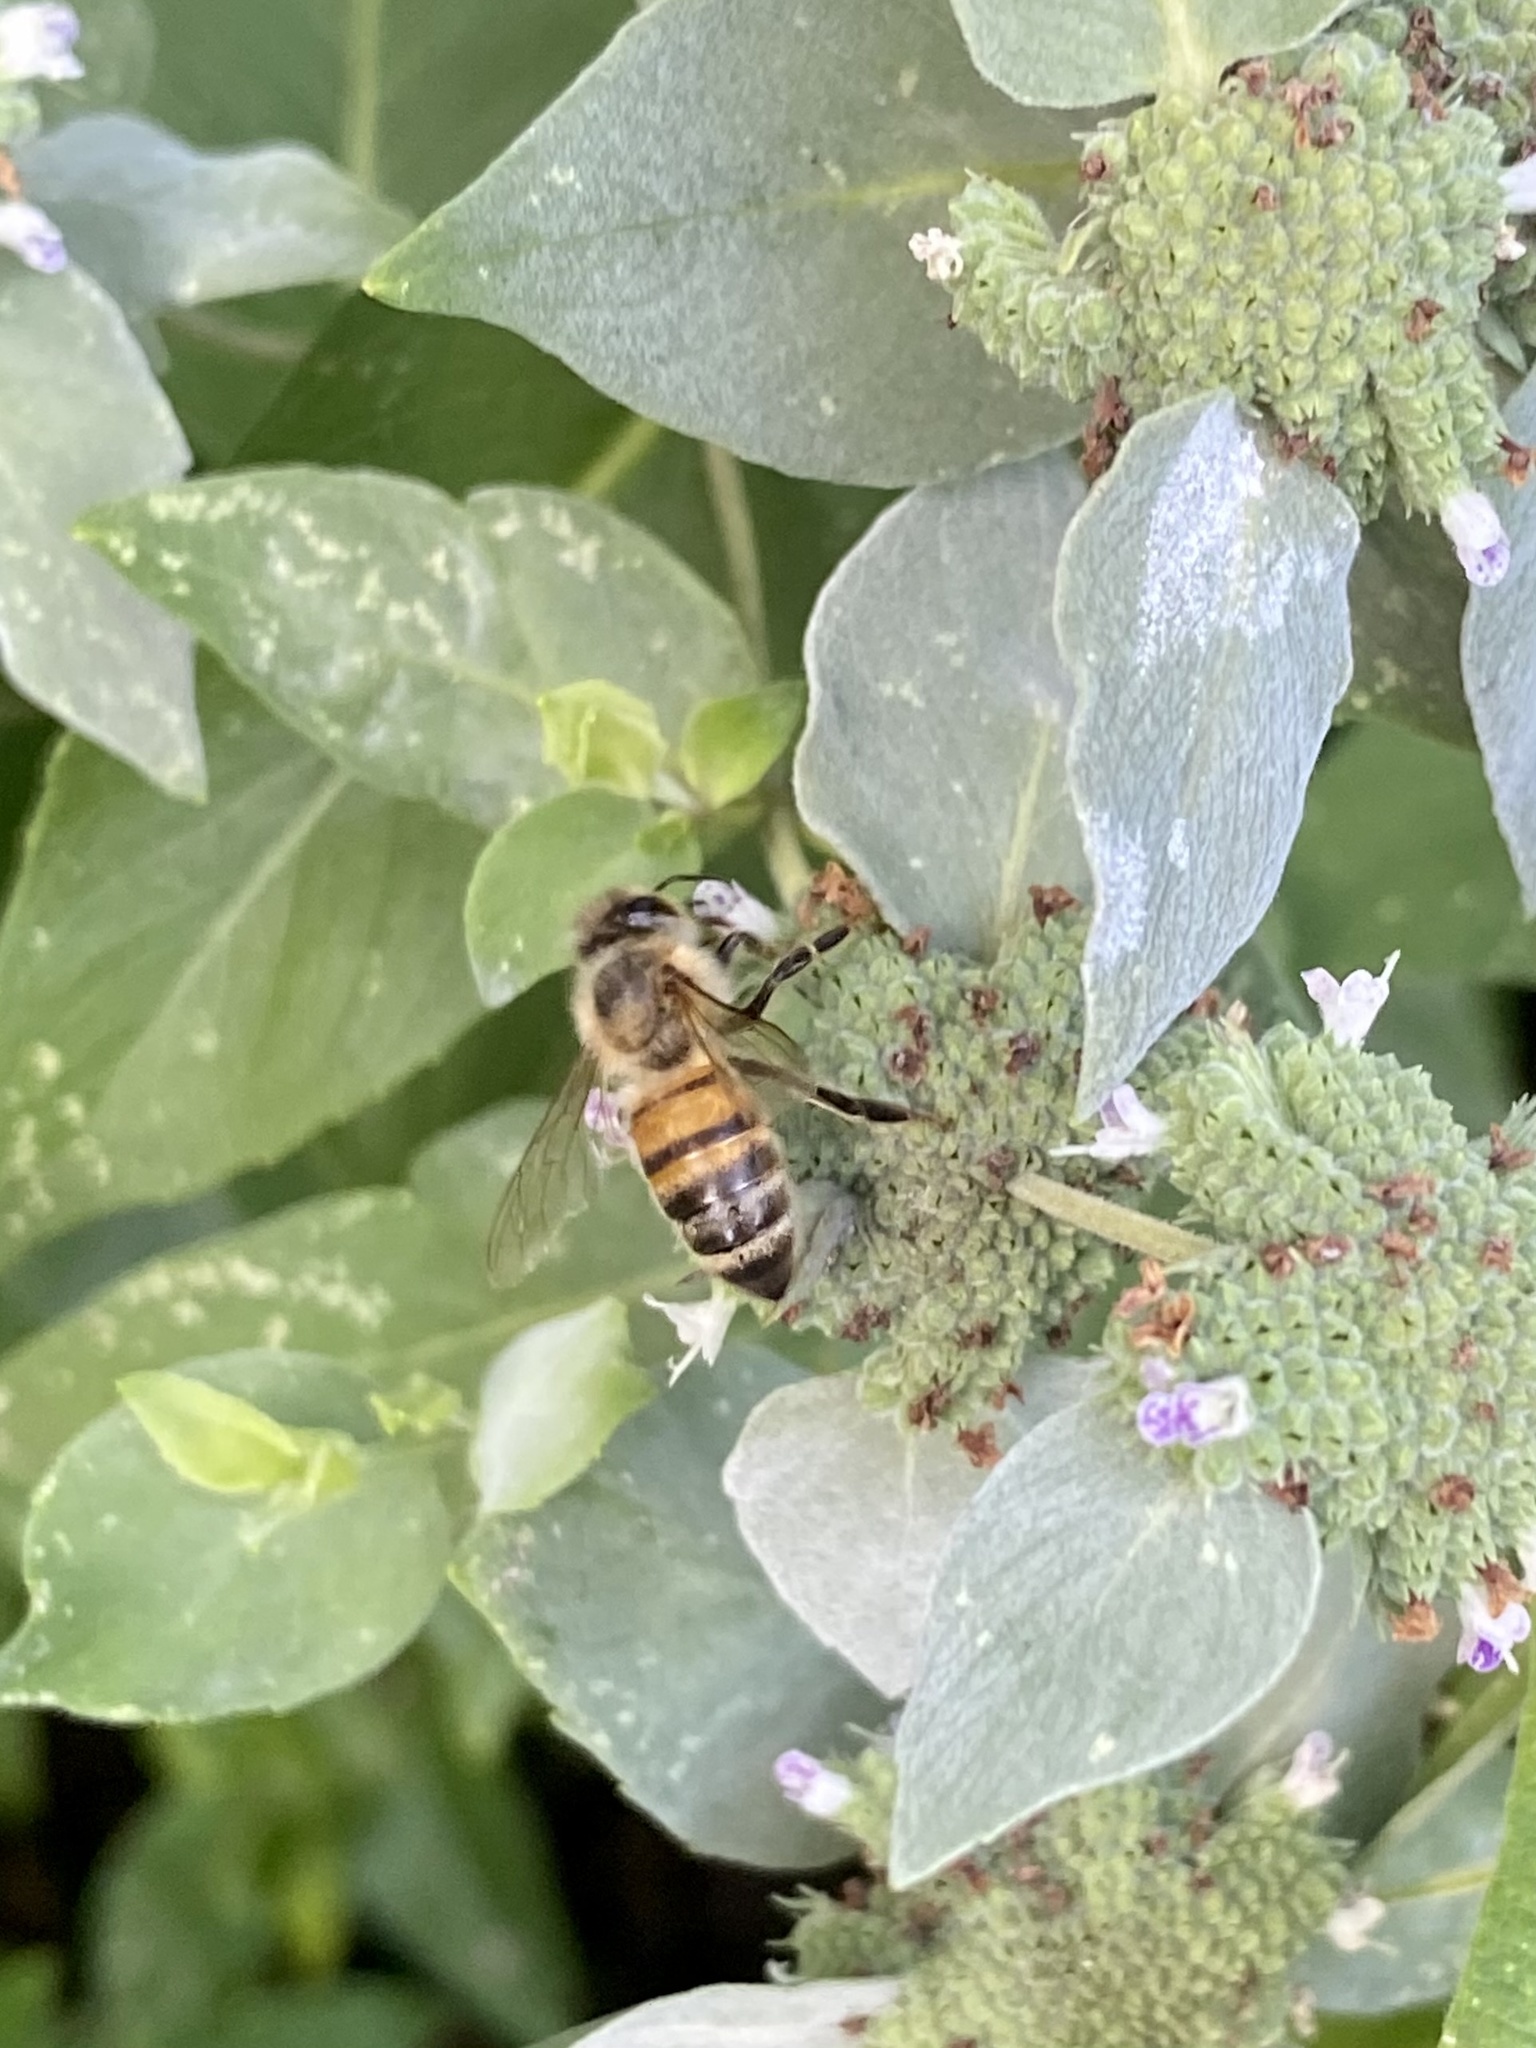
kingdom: Animalia
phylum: Arthropoda
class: Insecta
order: Hymenoptera
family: Apidae
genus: Apis
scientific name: Apis mellifera
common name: Honey bee
